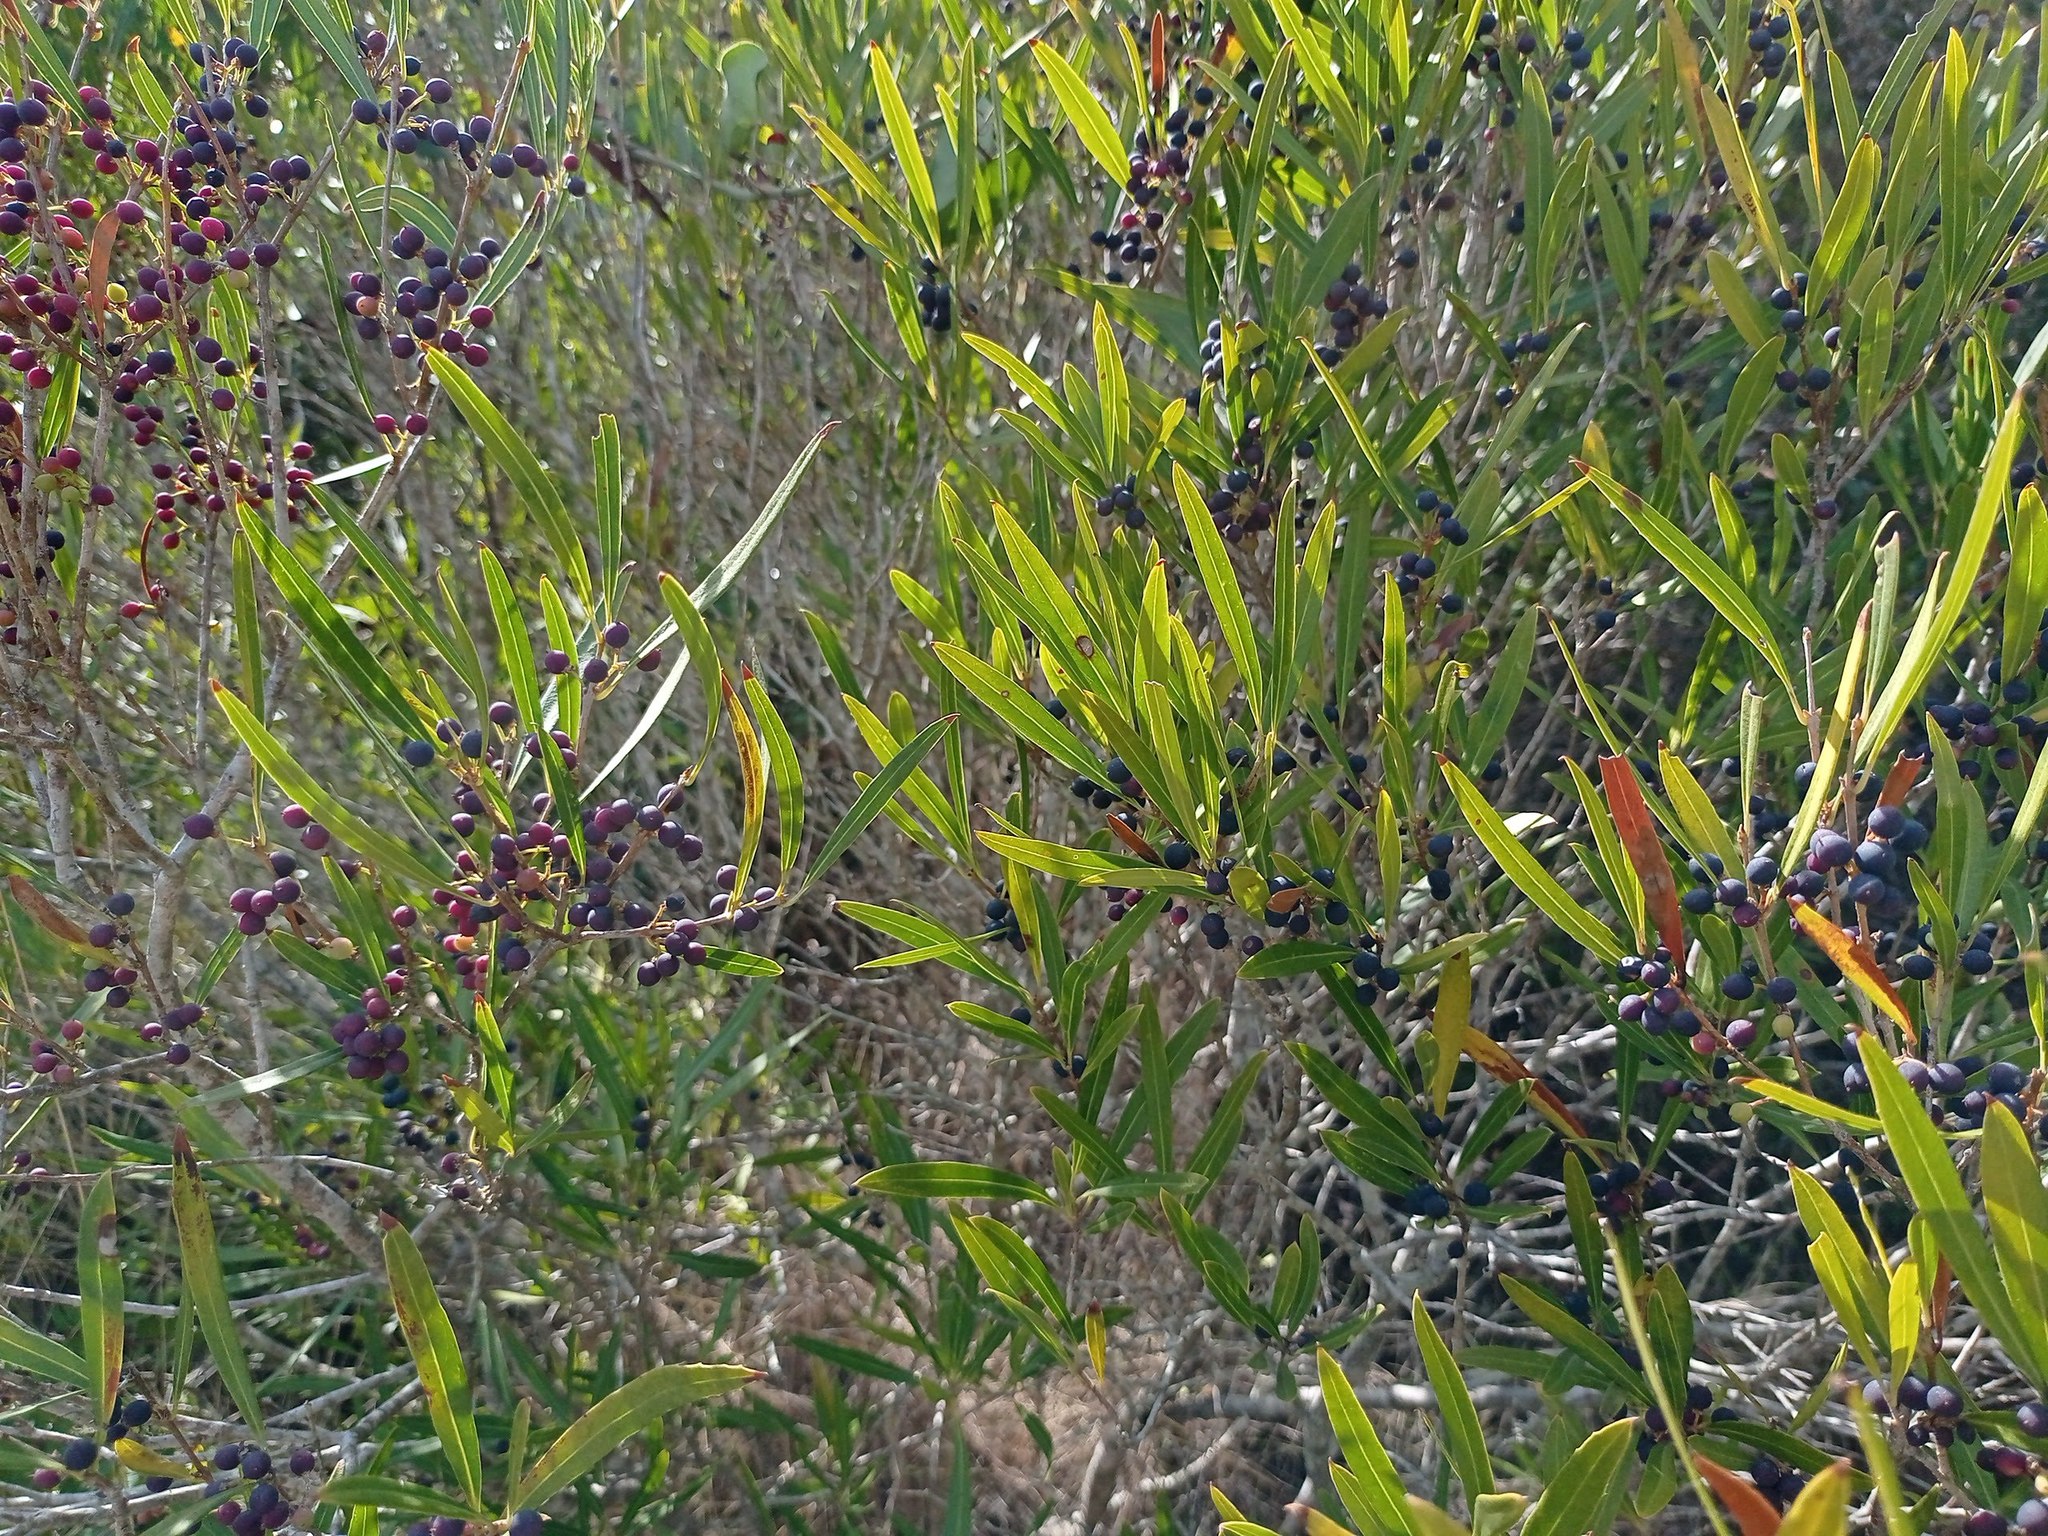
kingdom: Plantae
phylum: Tracheophyta
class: Magnoliopsida
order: Lamiales
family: Oleaceae
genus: Phillyrea
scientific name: Phillyrea angustifolia
